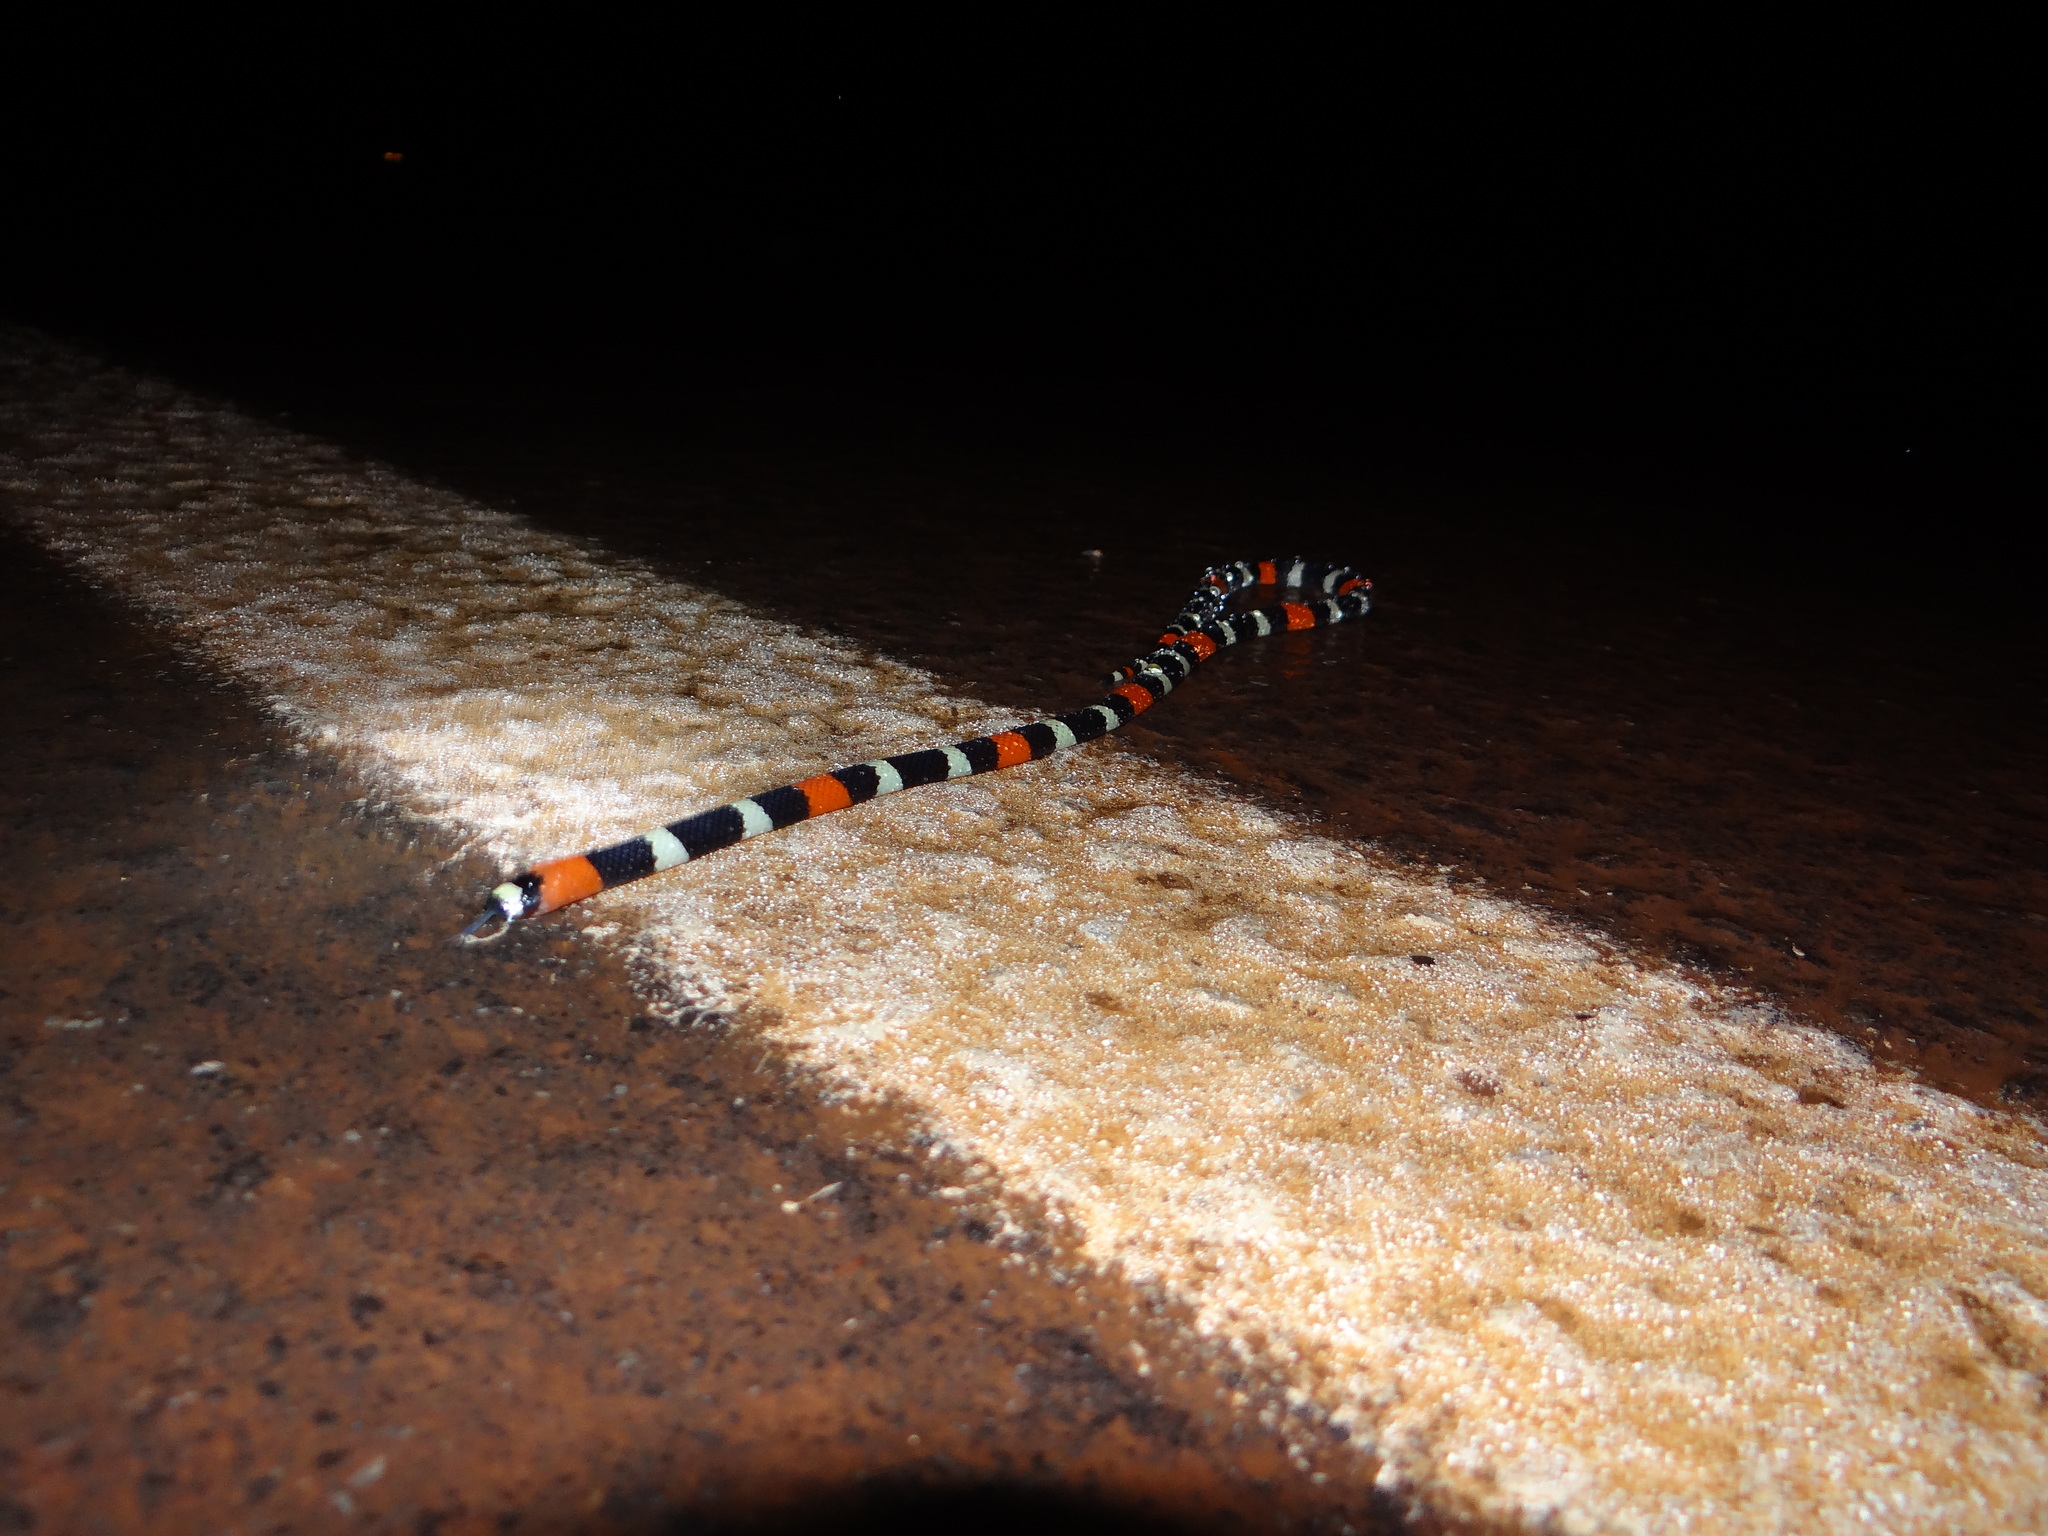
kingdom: Animalia
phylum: Chordata
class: Squamata
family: Elapidae
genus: Micrurus
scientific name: Micrurus lemniscatus
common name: South american coral snake
